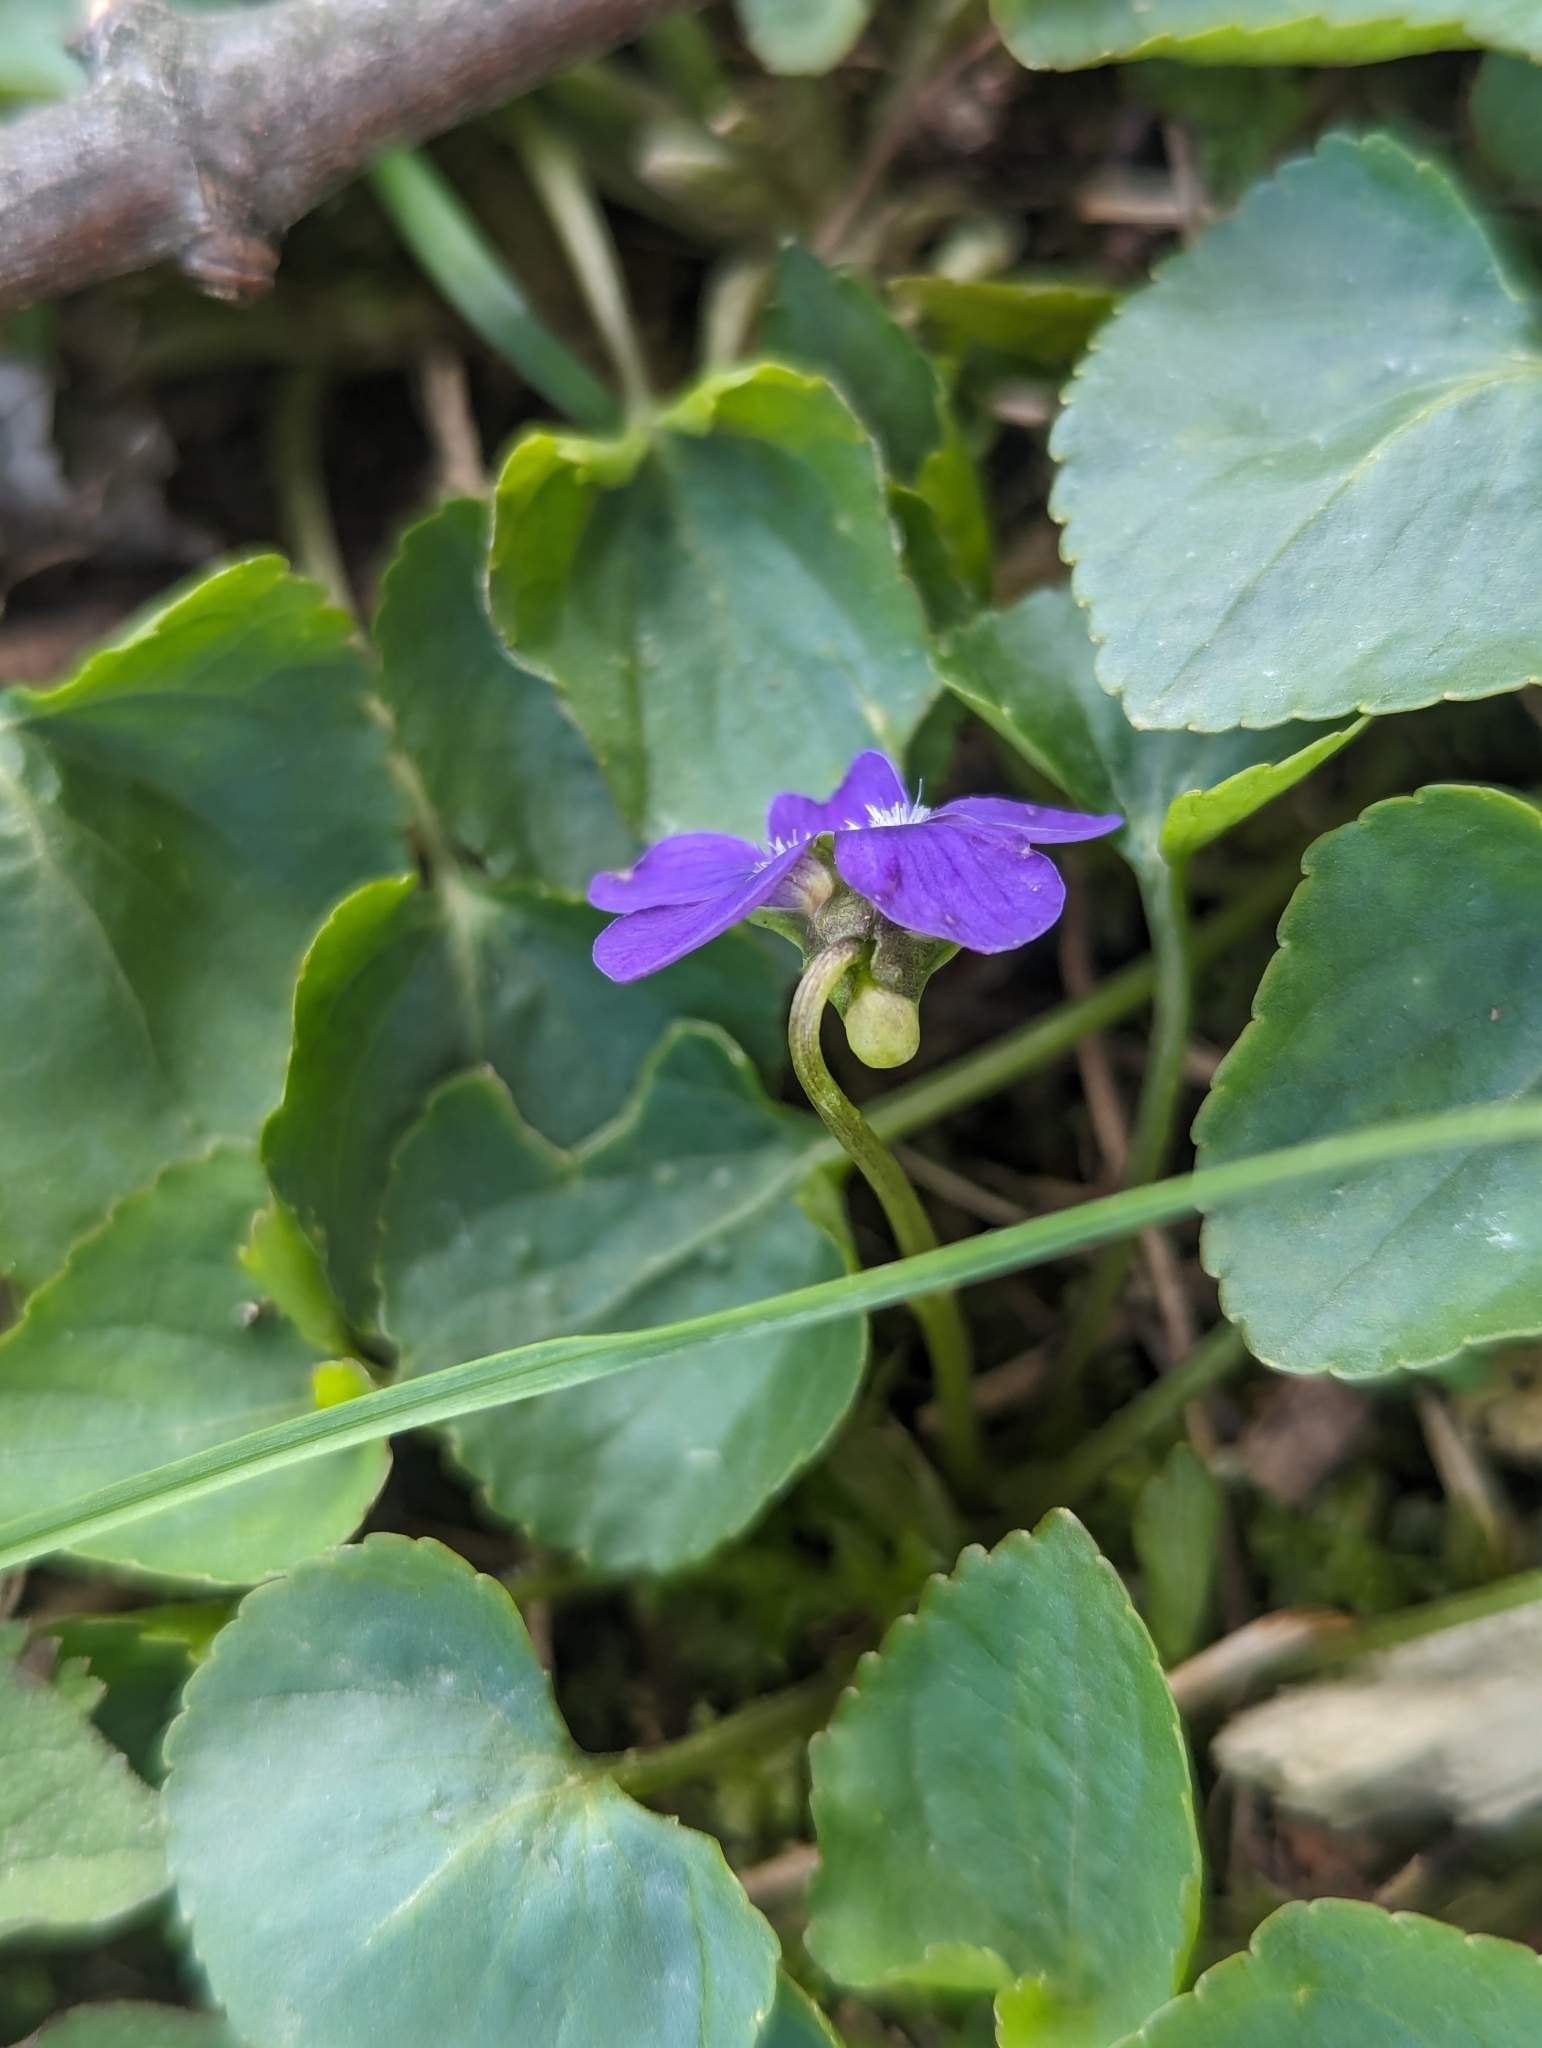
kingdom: Plantae
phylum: Tracheophyta
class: Magnoliopsida
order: Malpighiales
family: Violaceae
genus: Viola
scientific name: Viola sororia
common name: Dooryard violet
